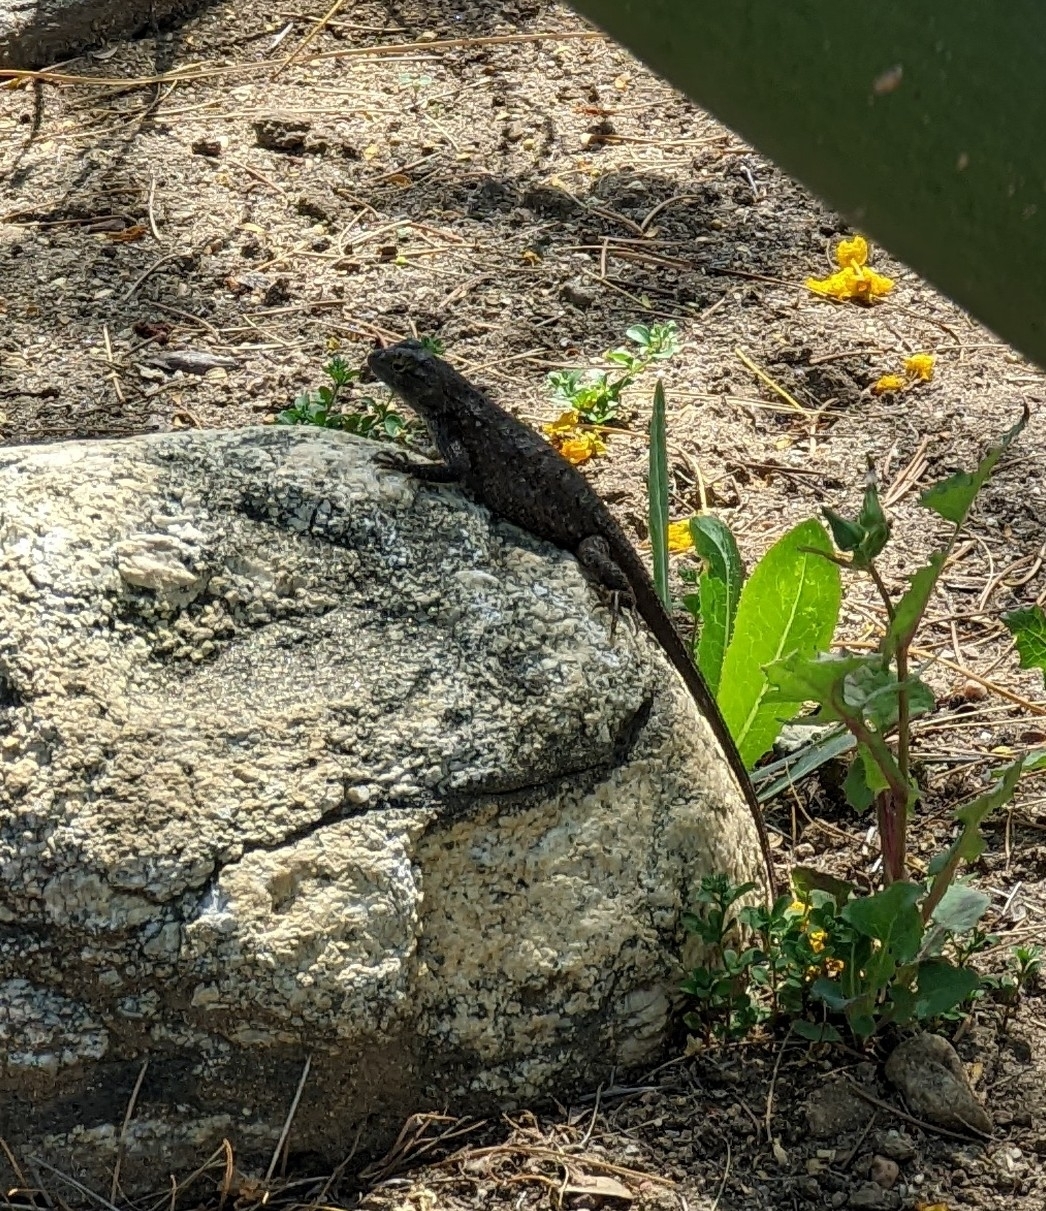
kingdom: Animalia
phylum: Chordata
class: Squamata
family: Phrynosomatidae
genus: Sceloporus
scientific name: Sceloporus occidentalis
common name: Western fence lizard
